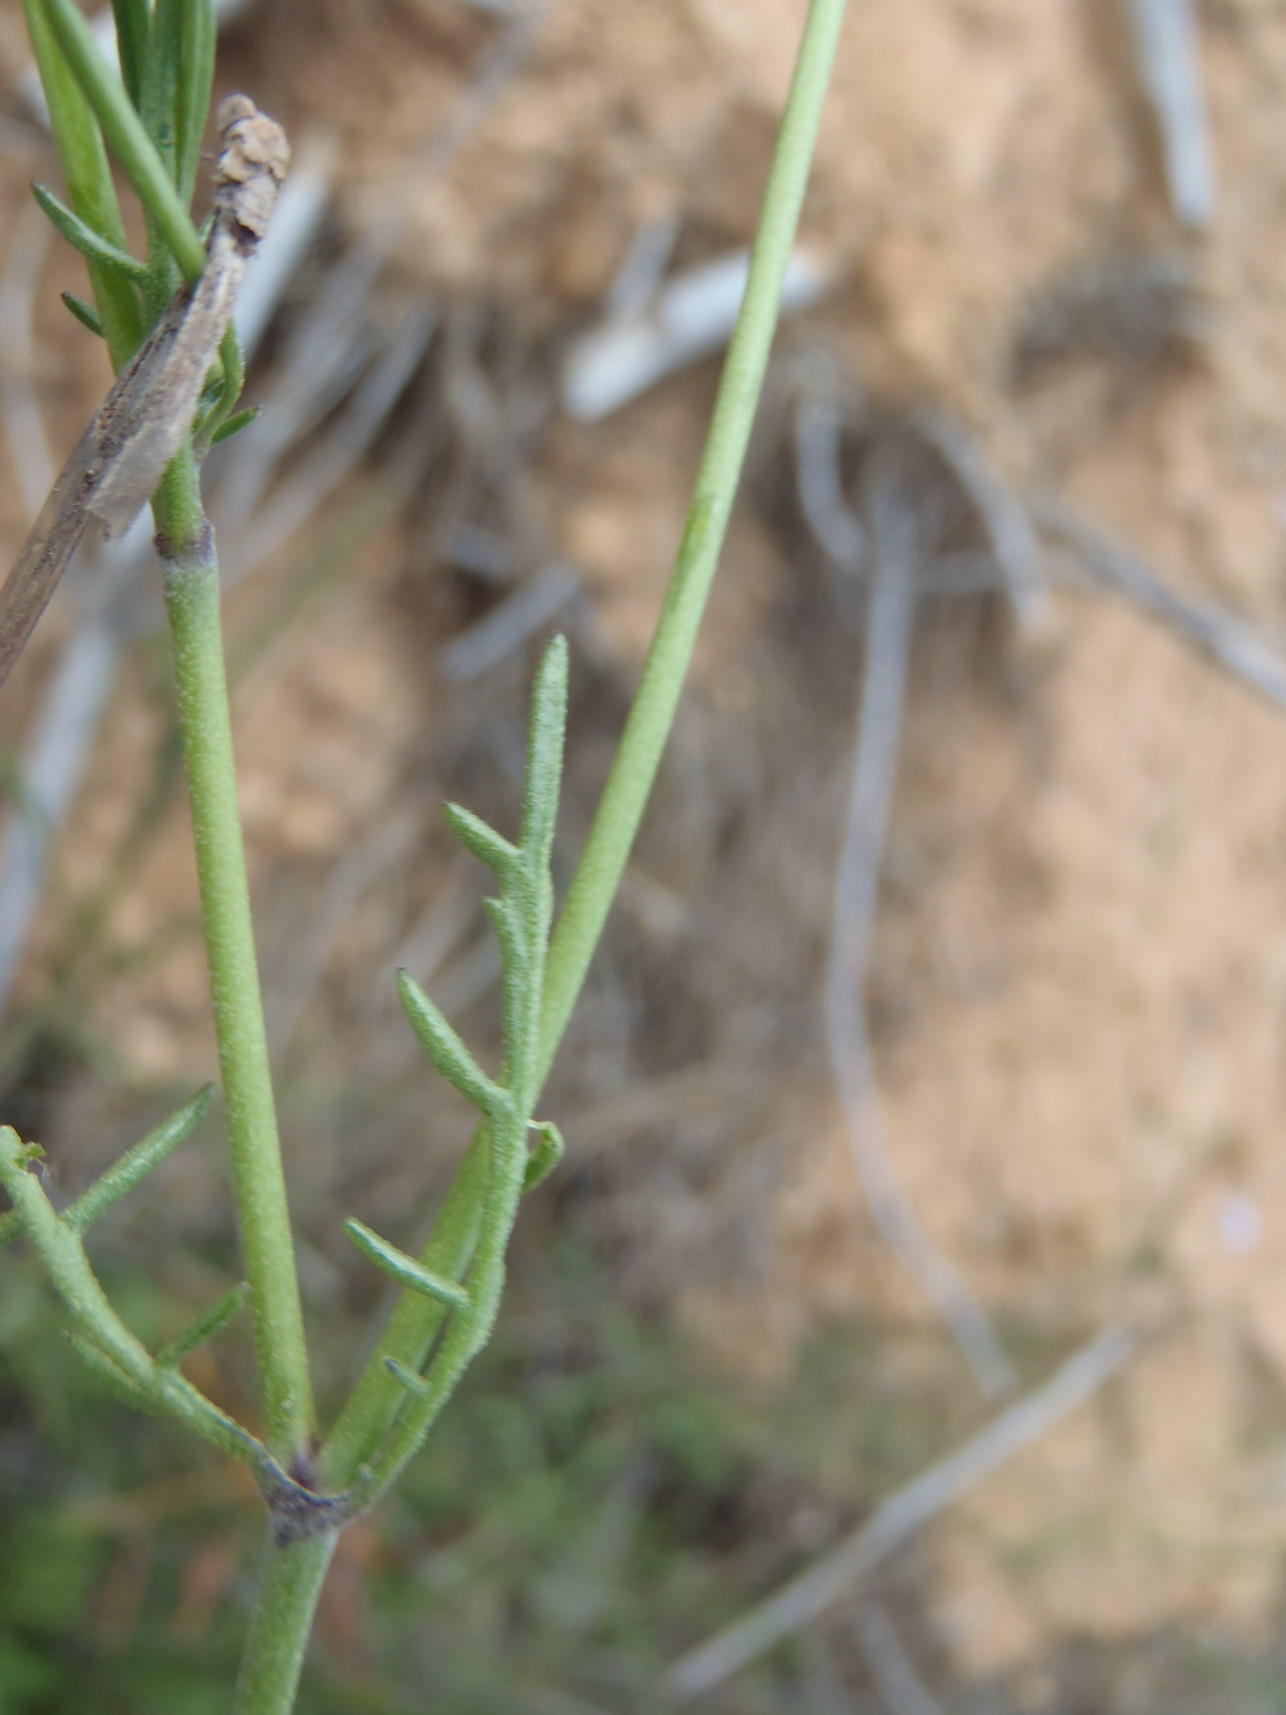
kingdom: Plantae
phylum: Tracheophyta
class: Magnoliopsida
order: Dipsacales
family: Caprifoliaceae
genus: Scabiosa
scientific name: Scabiosa columbaria
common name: Small scabious
